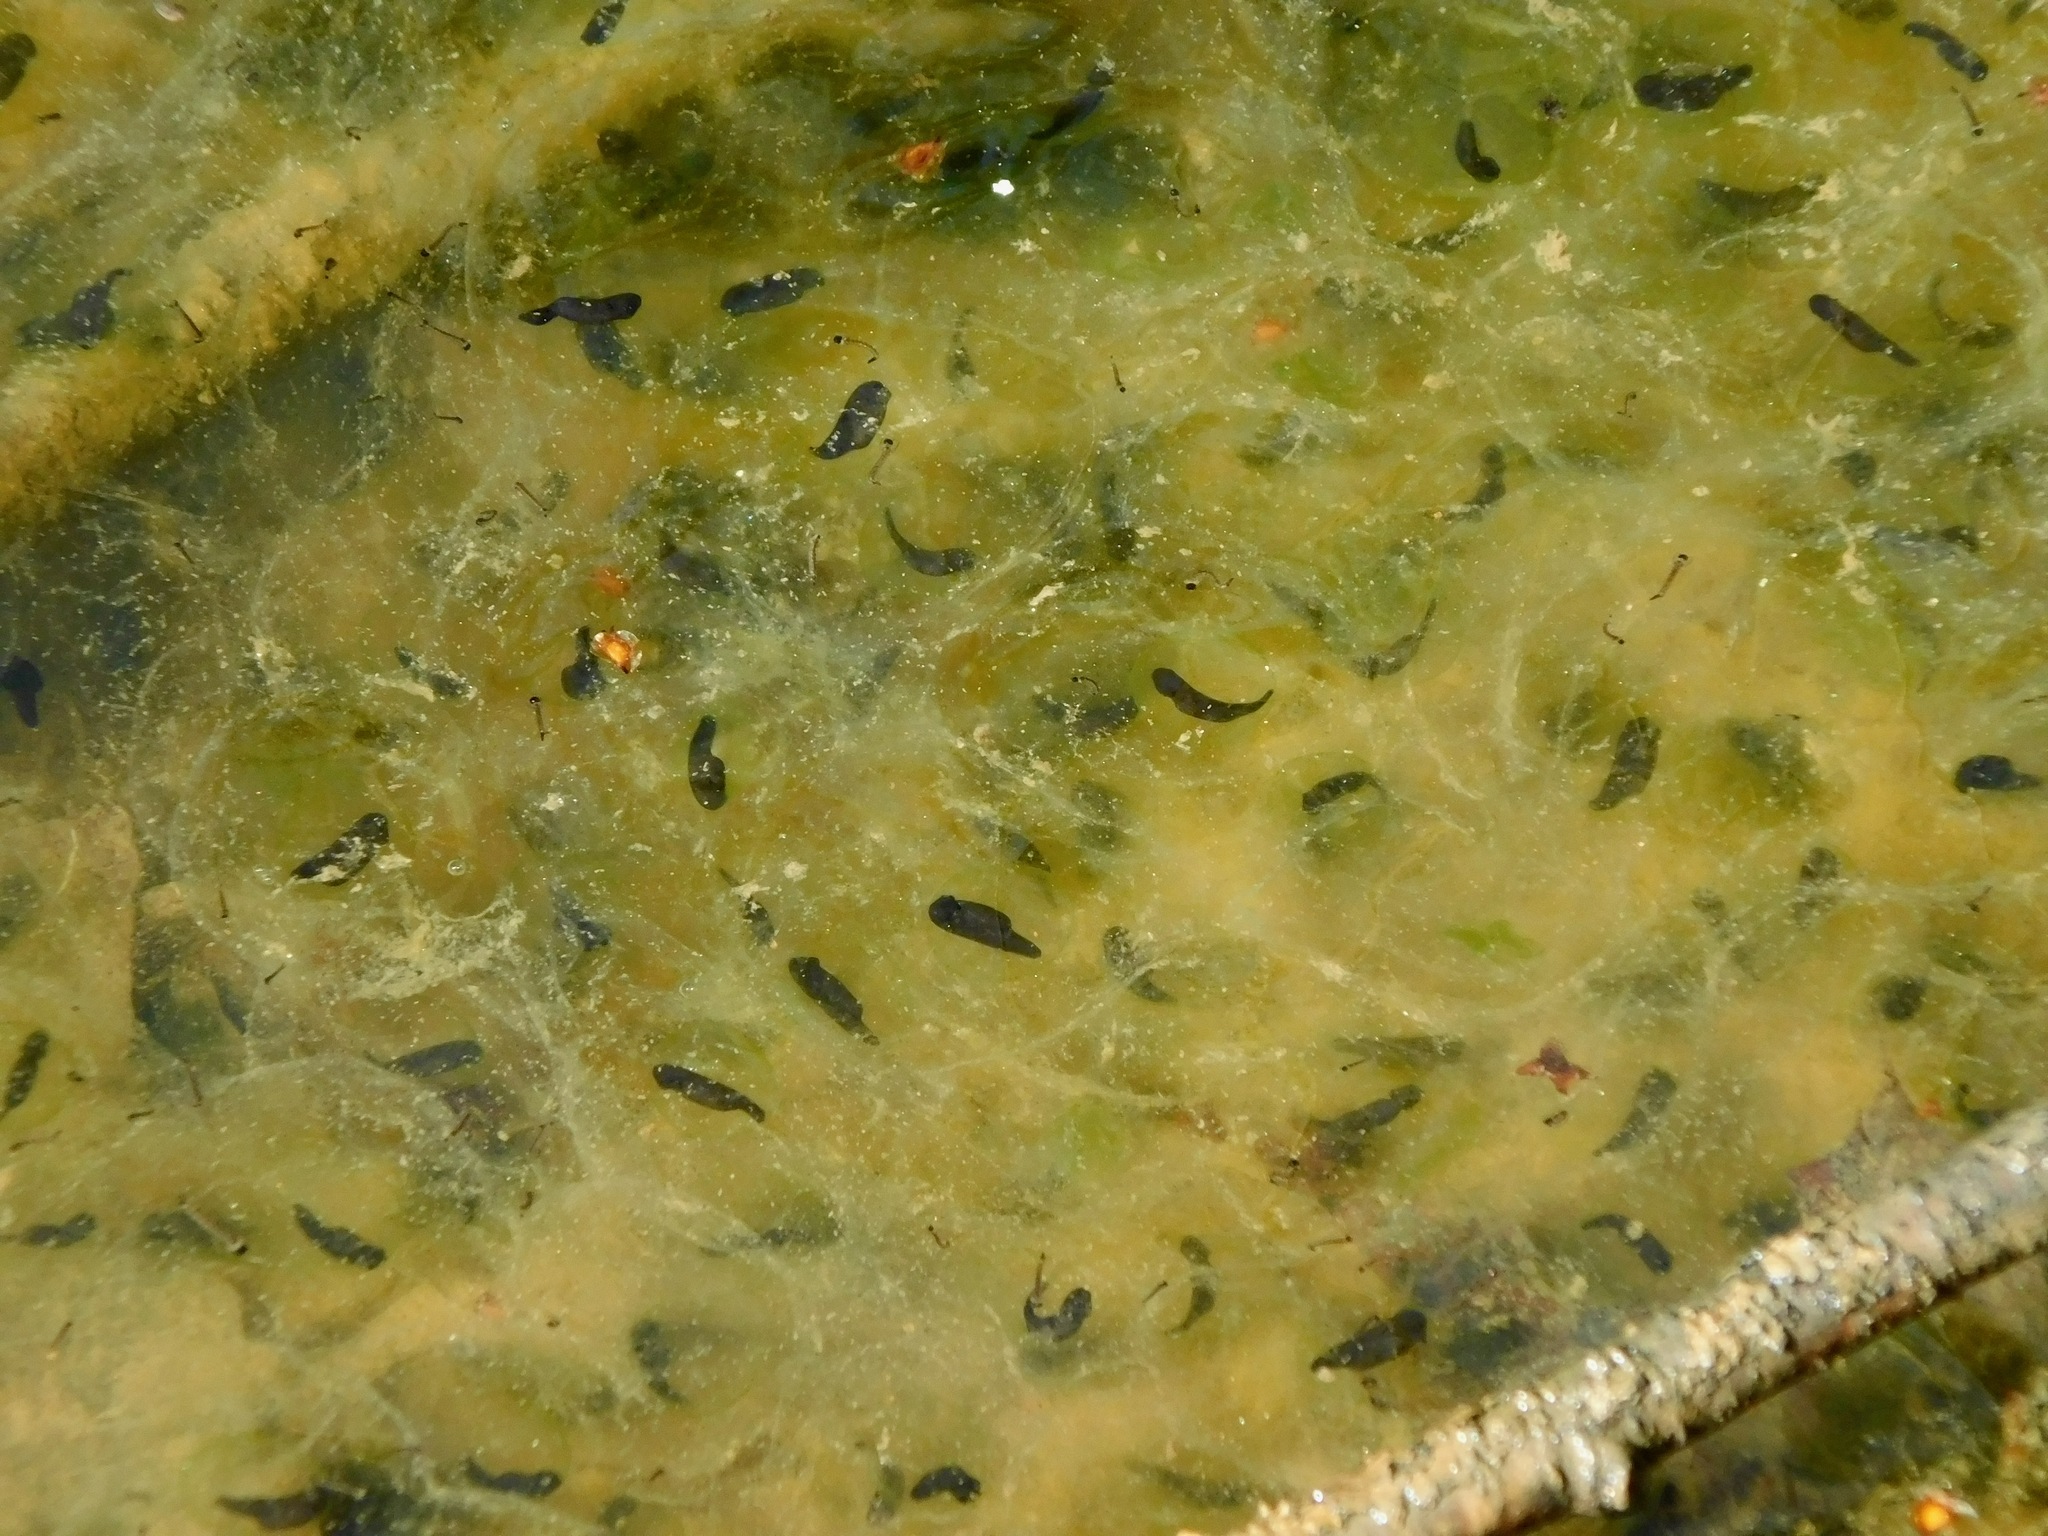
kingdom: Animalia
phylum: Chordata
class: Amphibia
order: Anura
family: Ranidae
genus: Lithobates
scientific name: Lithobates sylvaticus
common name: Wood frog
